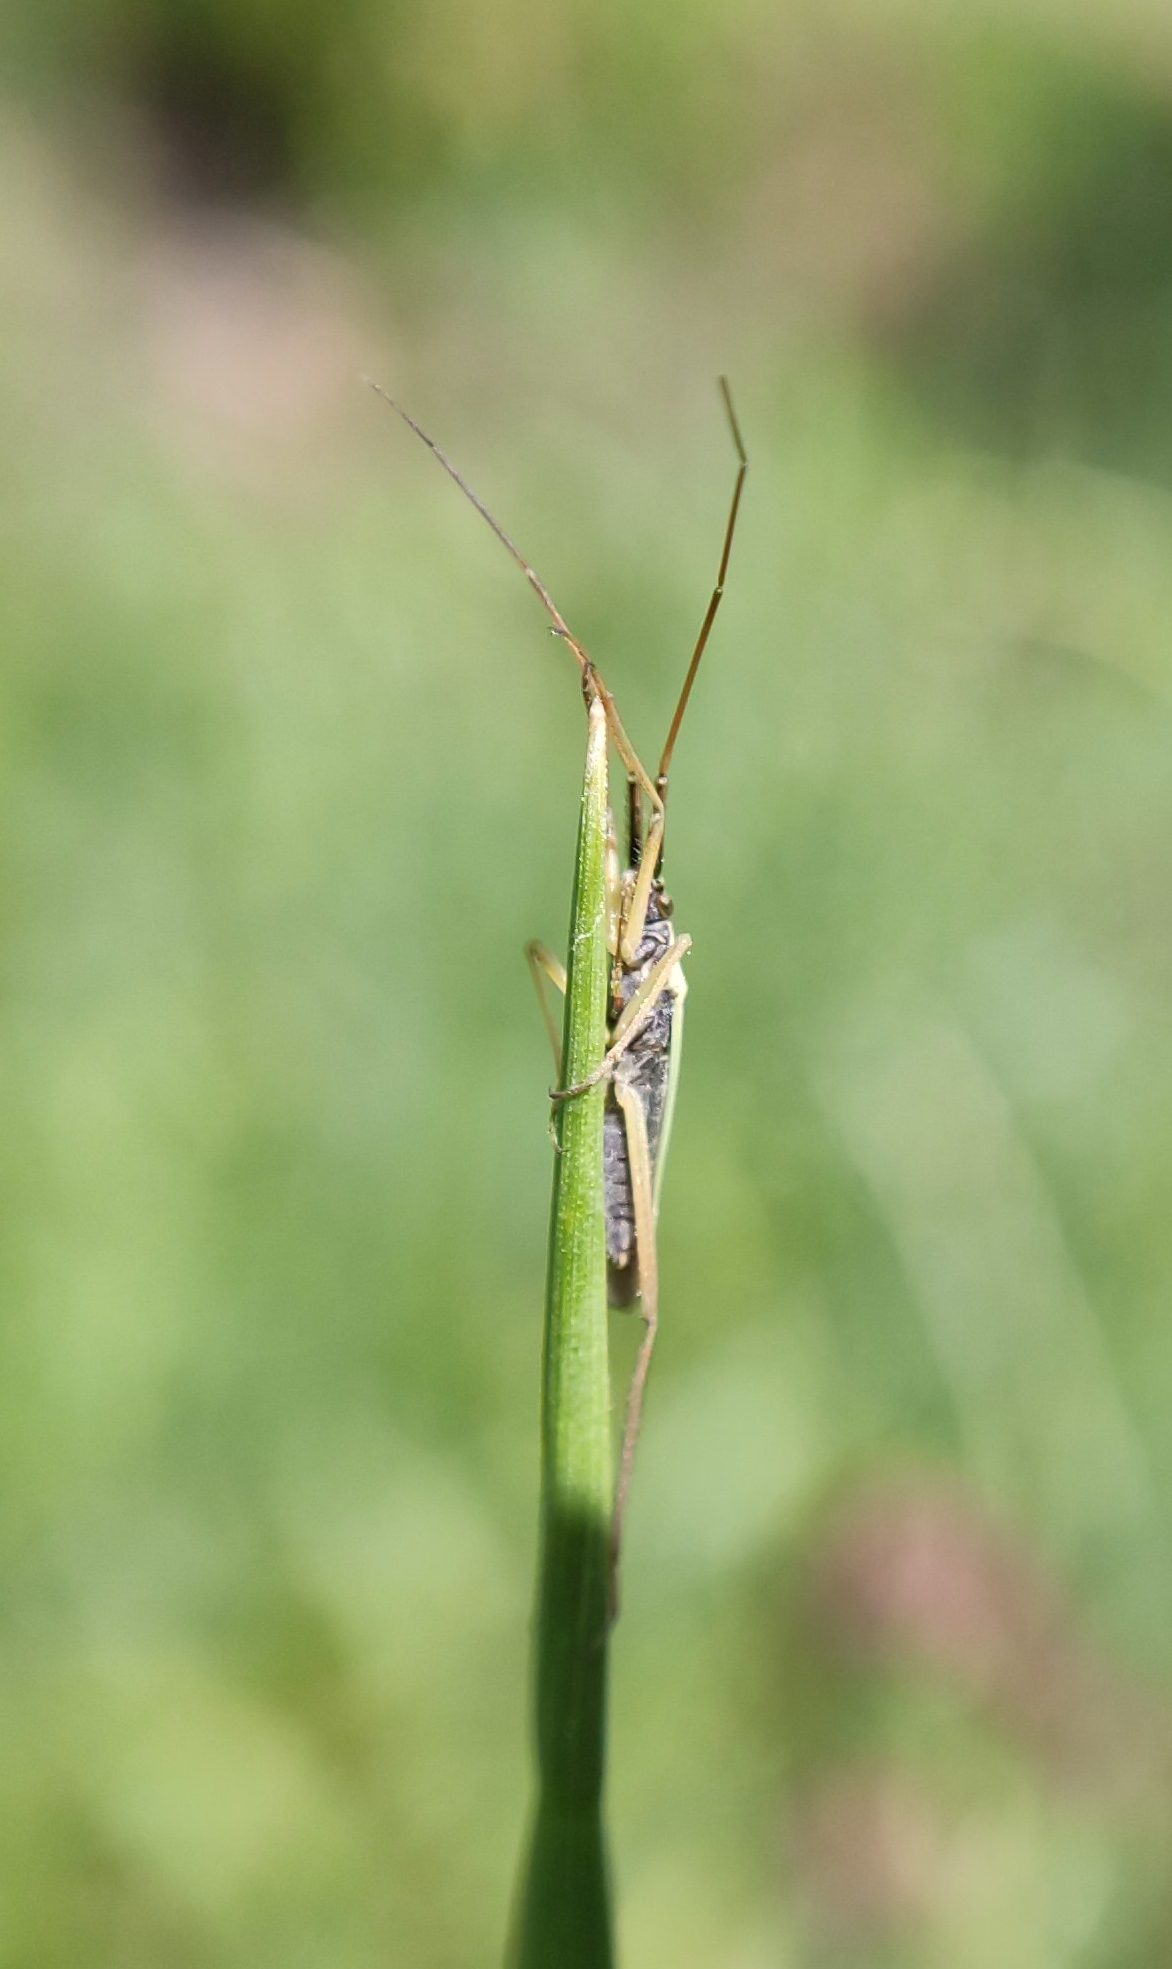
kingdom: Animalia
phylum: Arthropoda
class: Insecta
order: Hemiptera
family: Miridae
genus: Notostira
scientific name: Notostira
